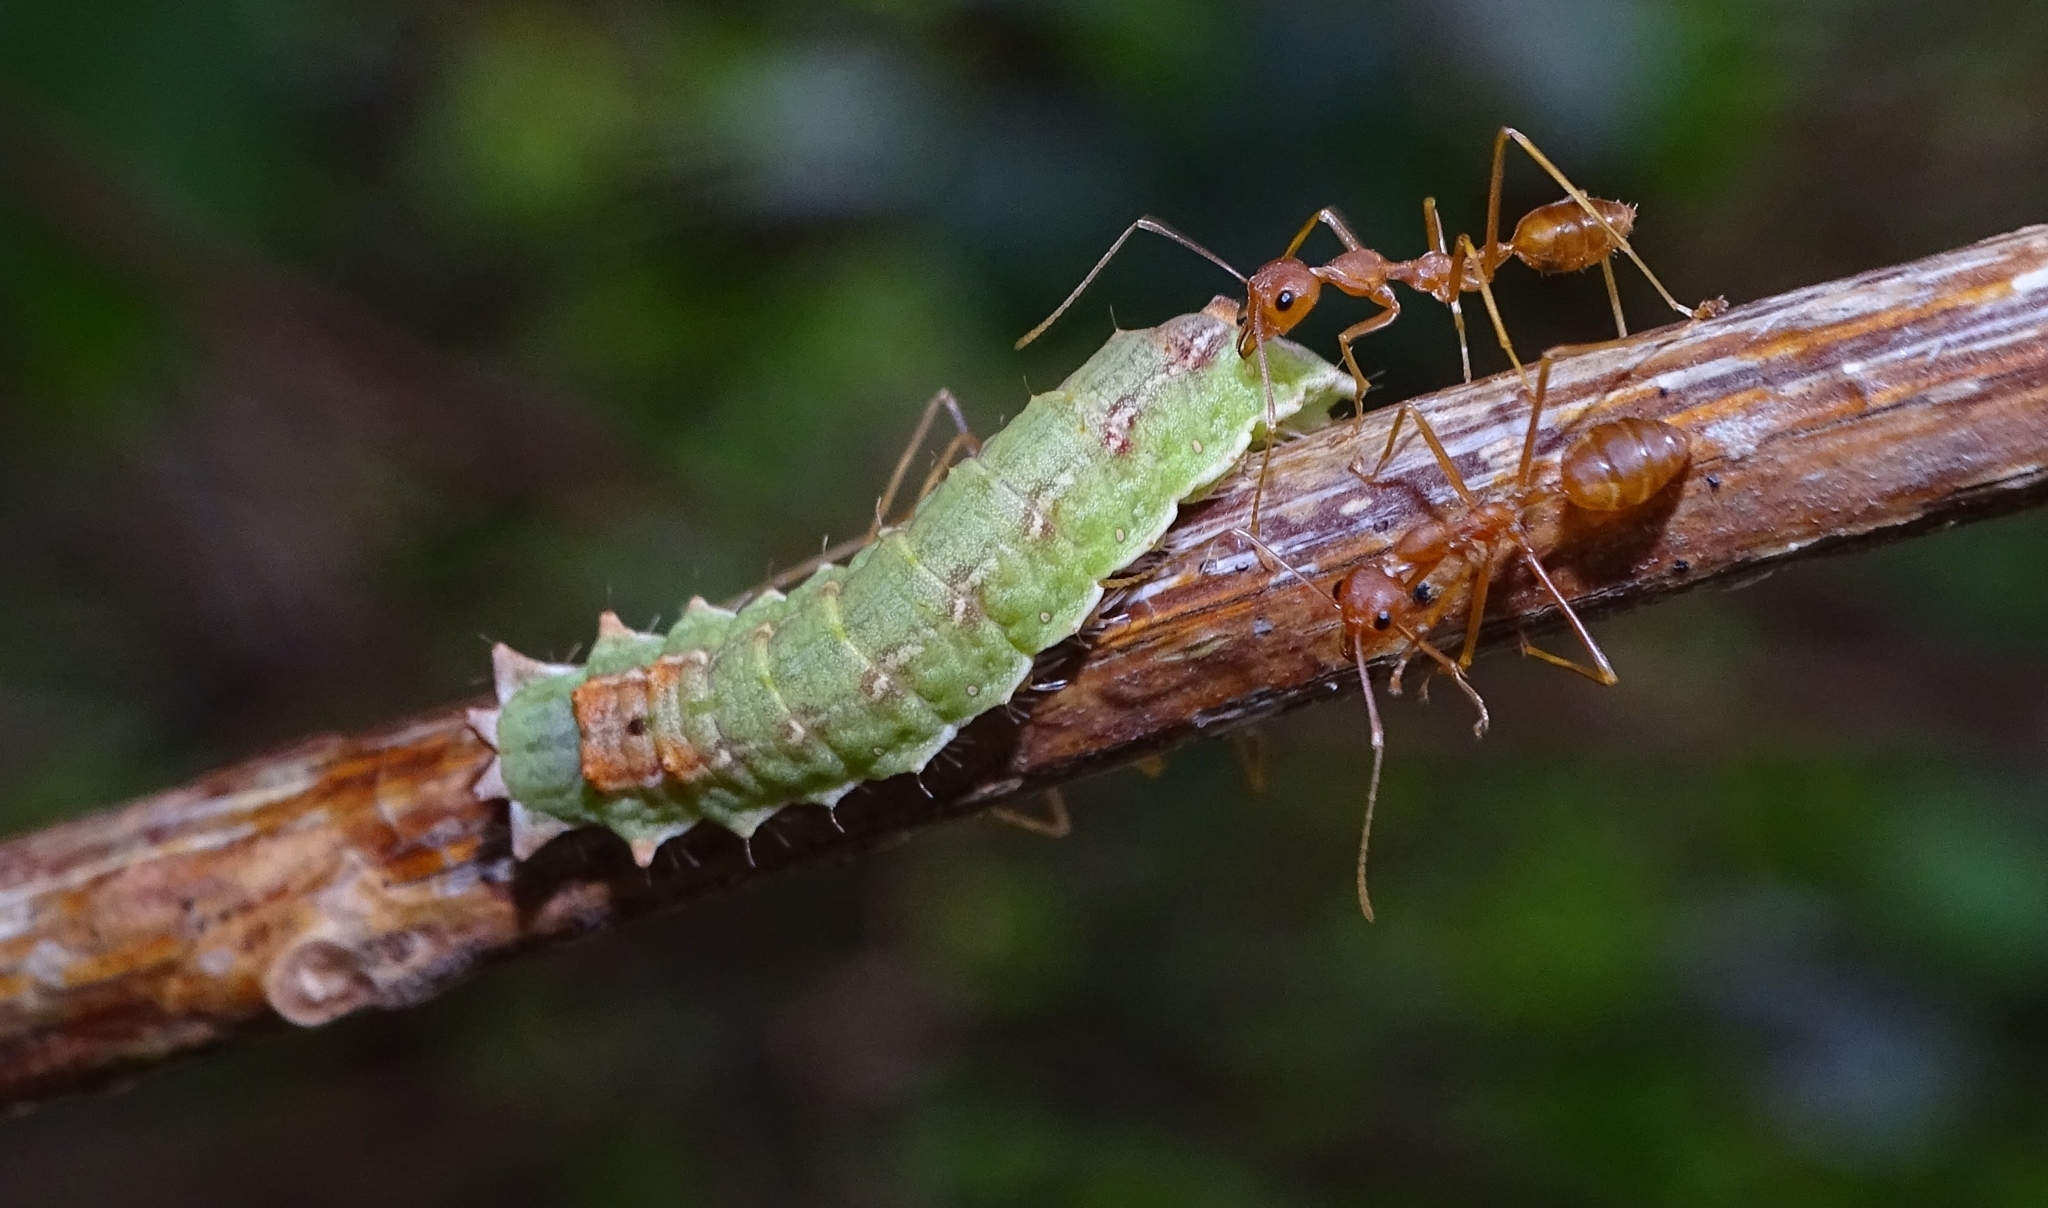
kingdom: Animalia
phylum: Arthropoda
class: Insecta
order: Lepidoptera
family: Lycaenidae
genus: Zesius
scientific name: Zesius chrysomallus
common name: Redspot
